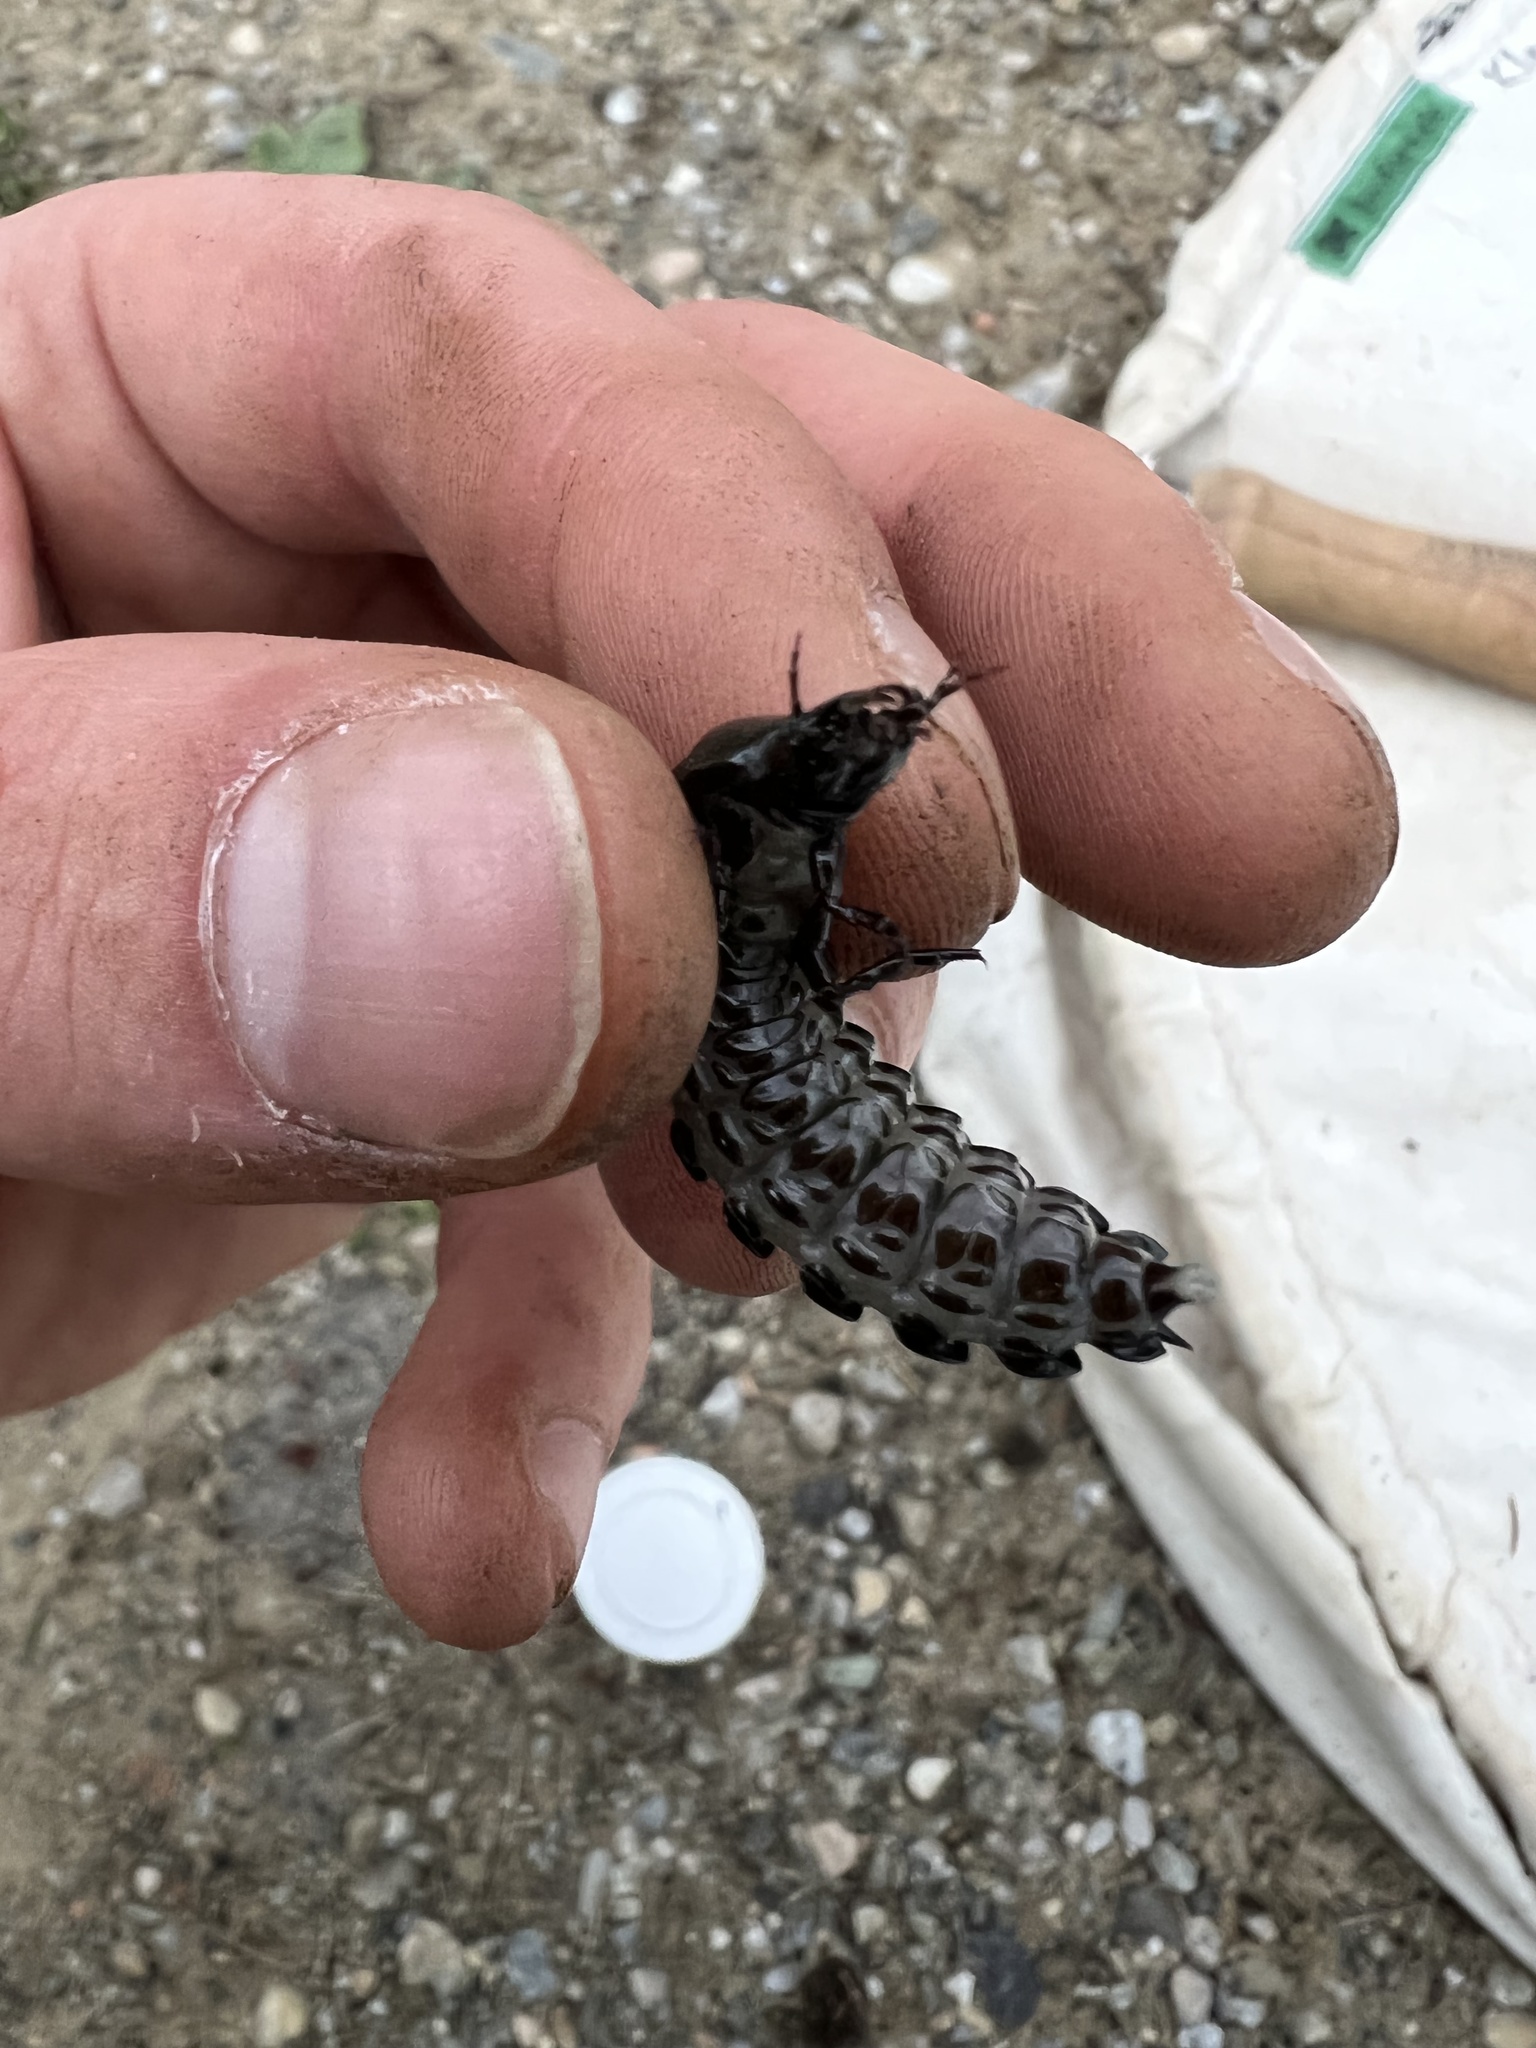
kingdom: Animalia
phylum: Arthropoda
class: Insecta
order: Coleoptera
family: Carabidae
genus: Carabus
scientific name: Carabus
